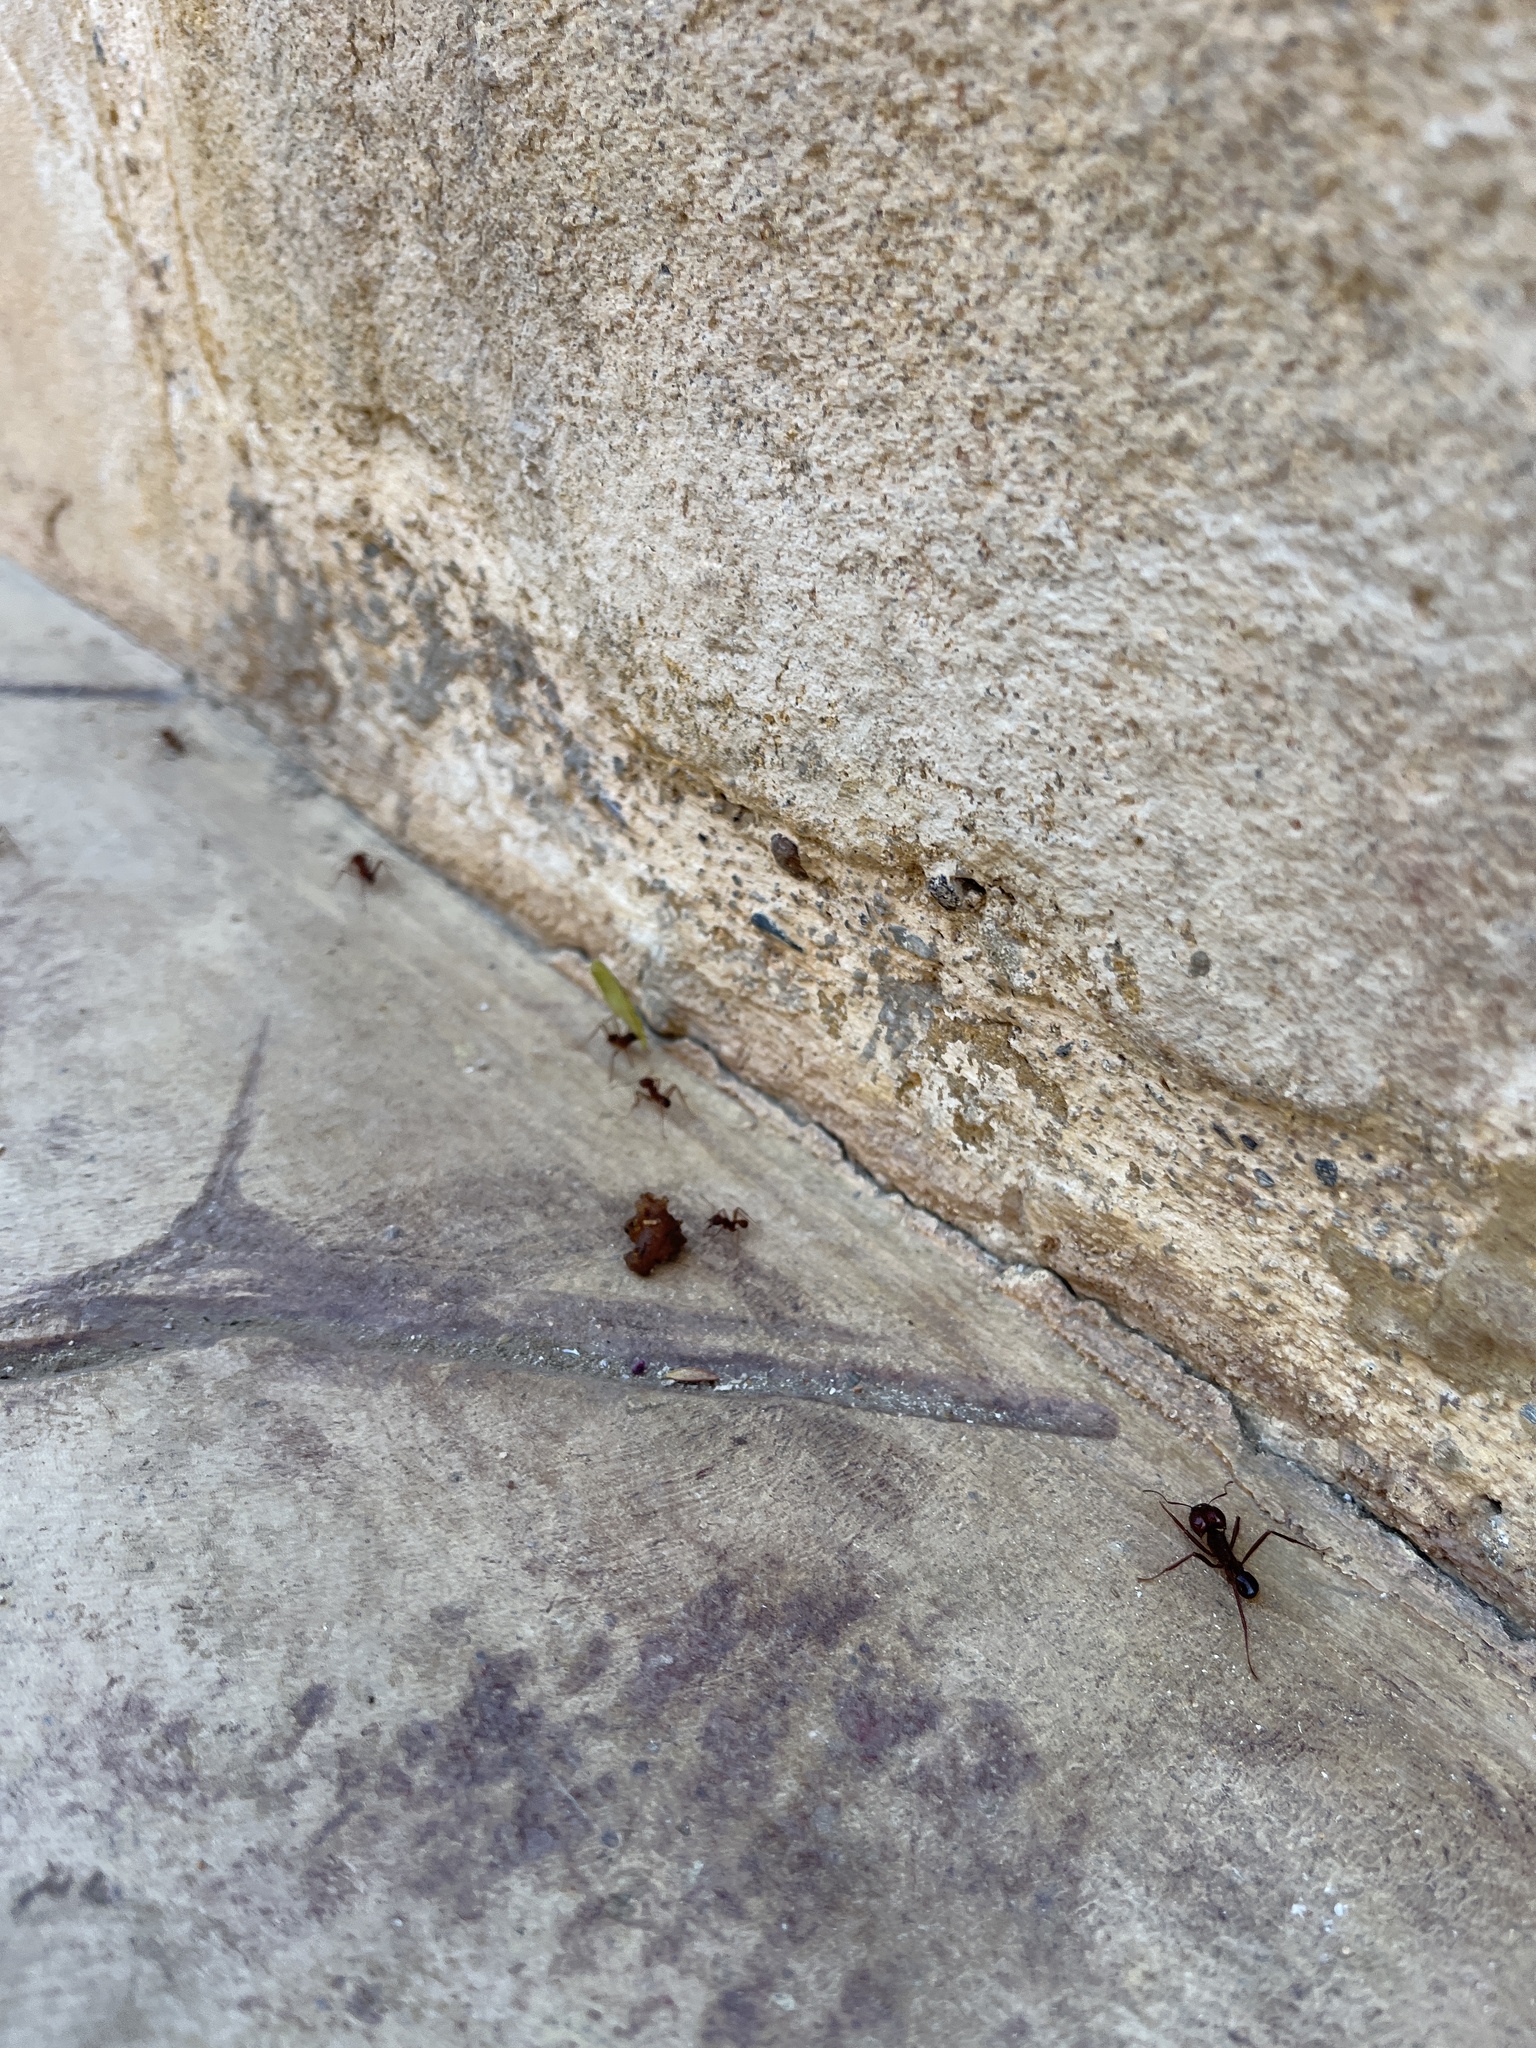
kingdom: Animalia
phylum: Arthropoda
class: Insecta
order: Hymenoptera
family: Formicidae
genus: Atta
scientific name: Atta mexicana
